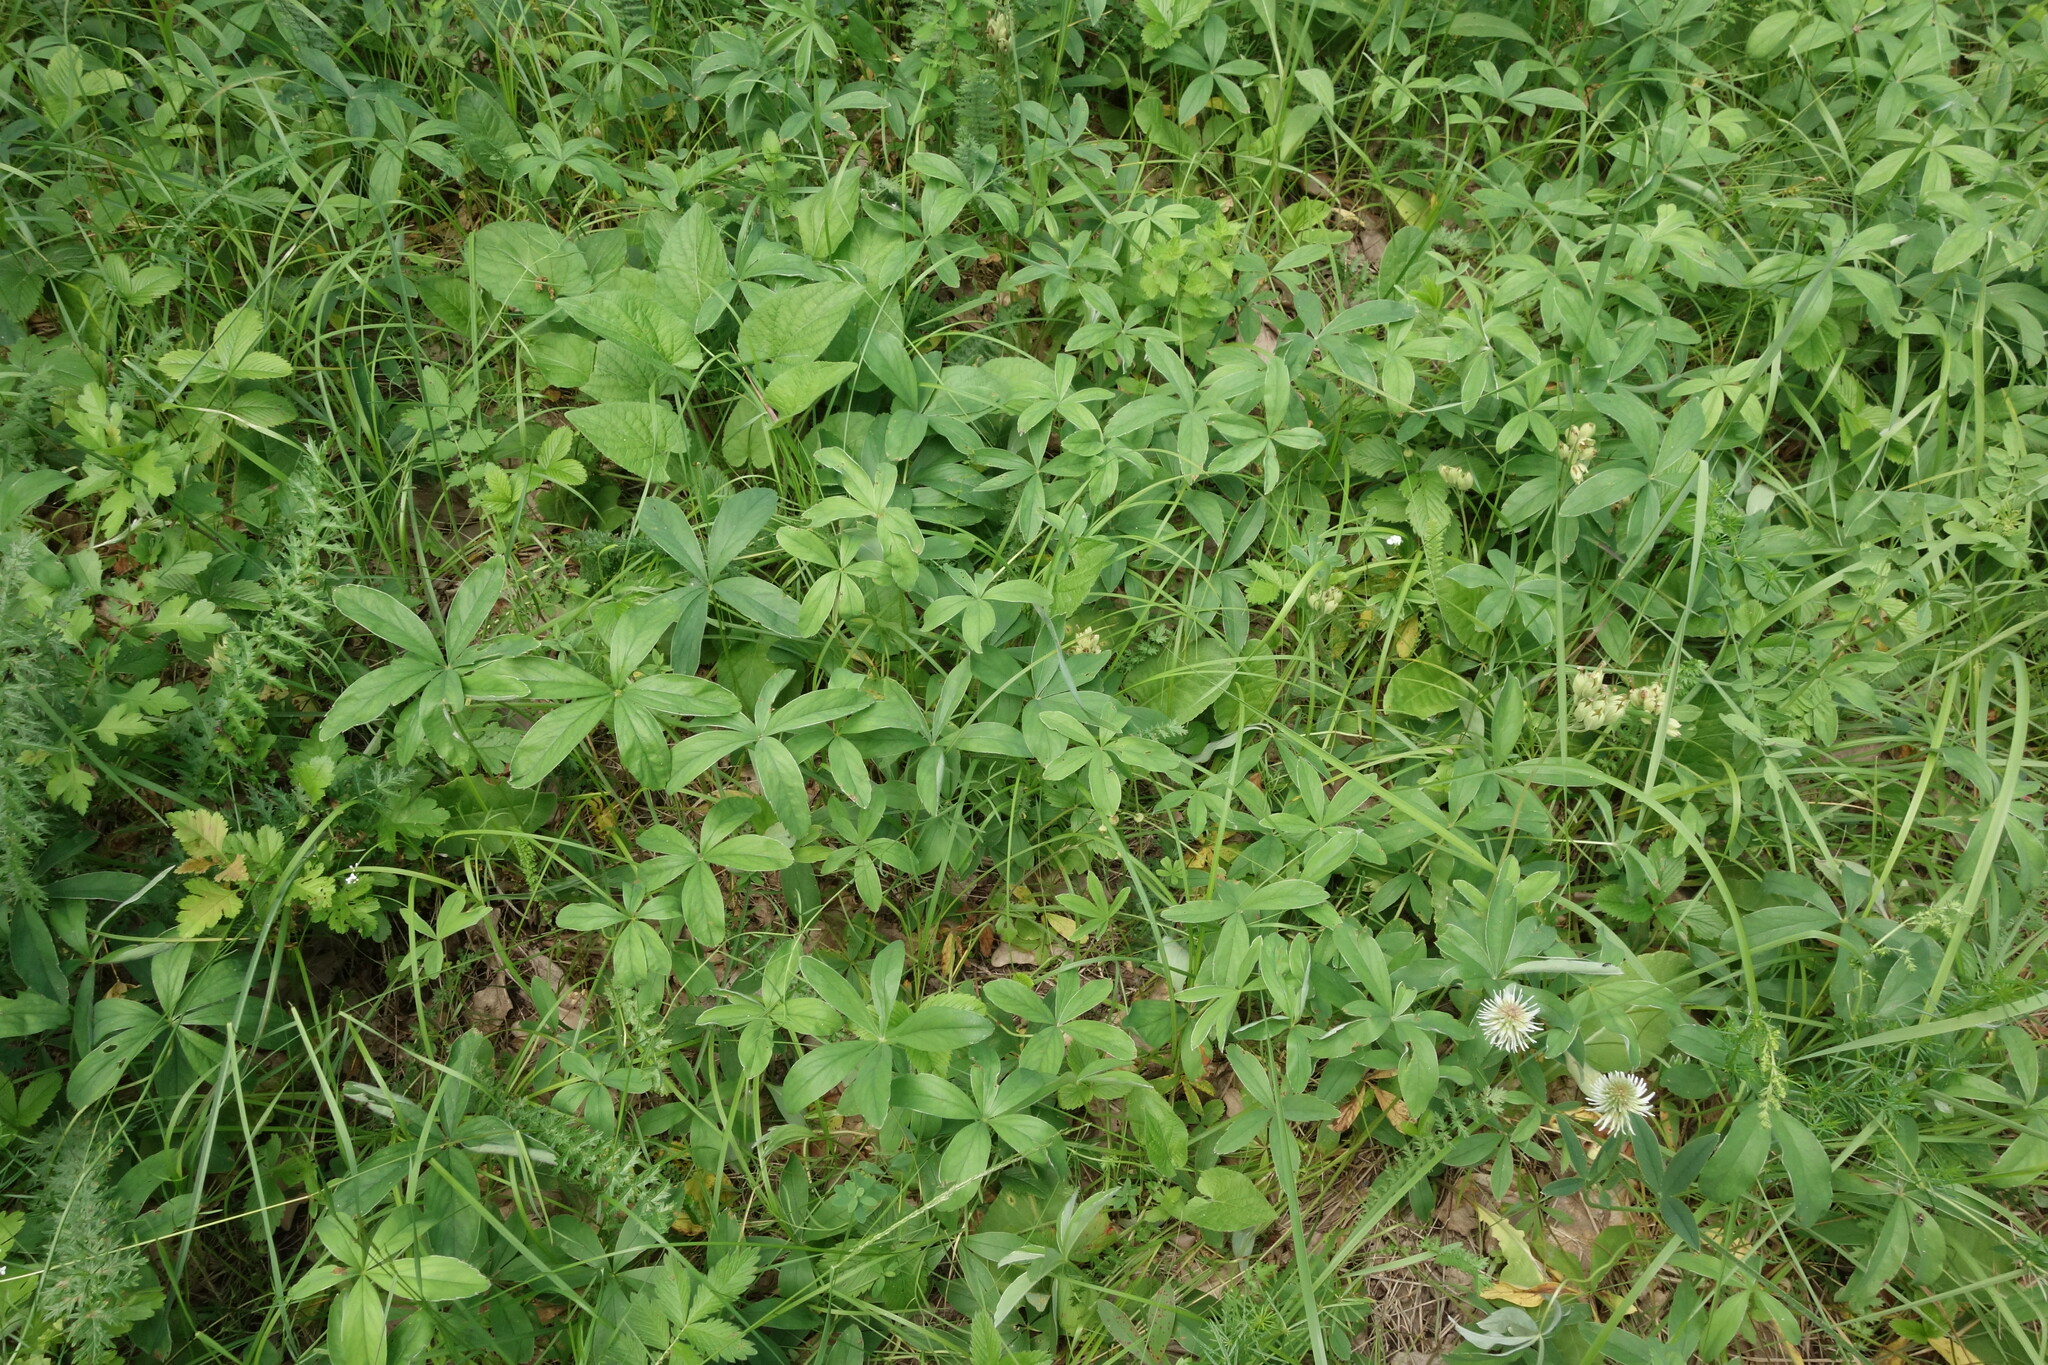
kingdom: Plantae
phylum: Tracheophyta
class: Magnoliopsida
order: Rosales
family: Rosaceae
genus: Potentilla
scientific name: Potentilla alba
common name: White cinquefoil
